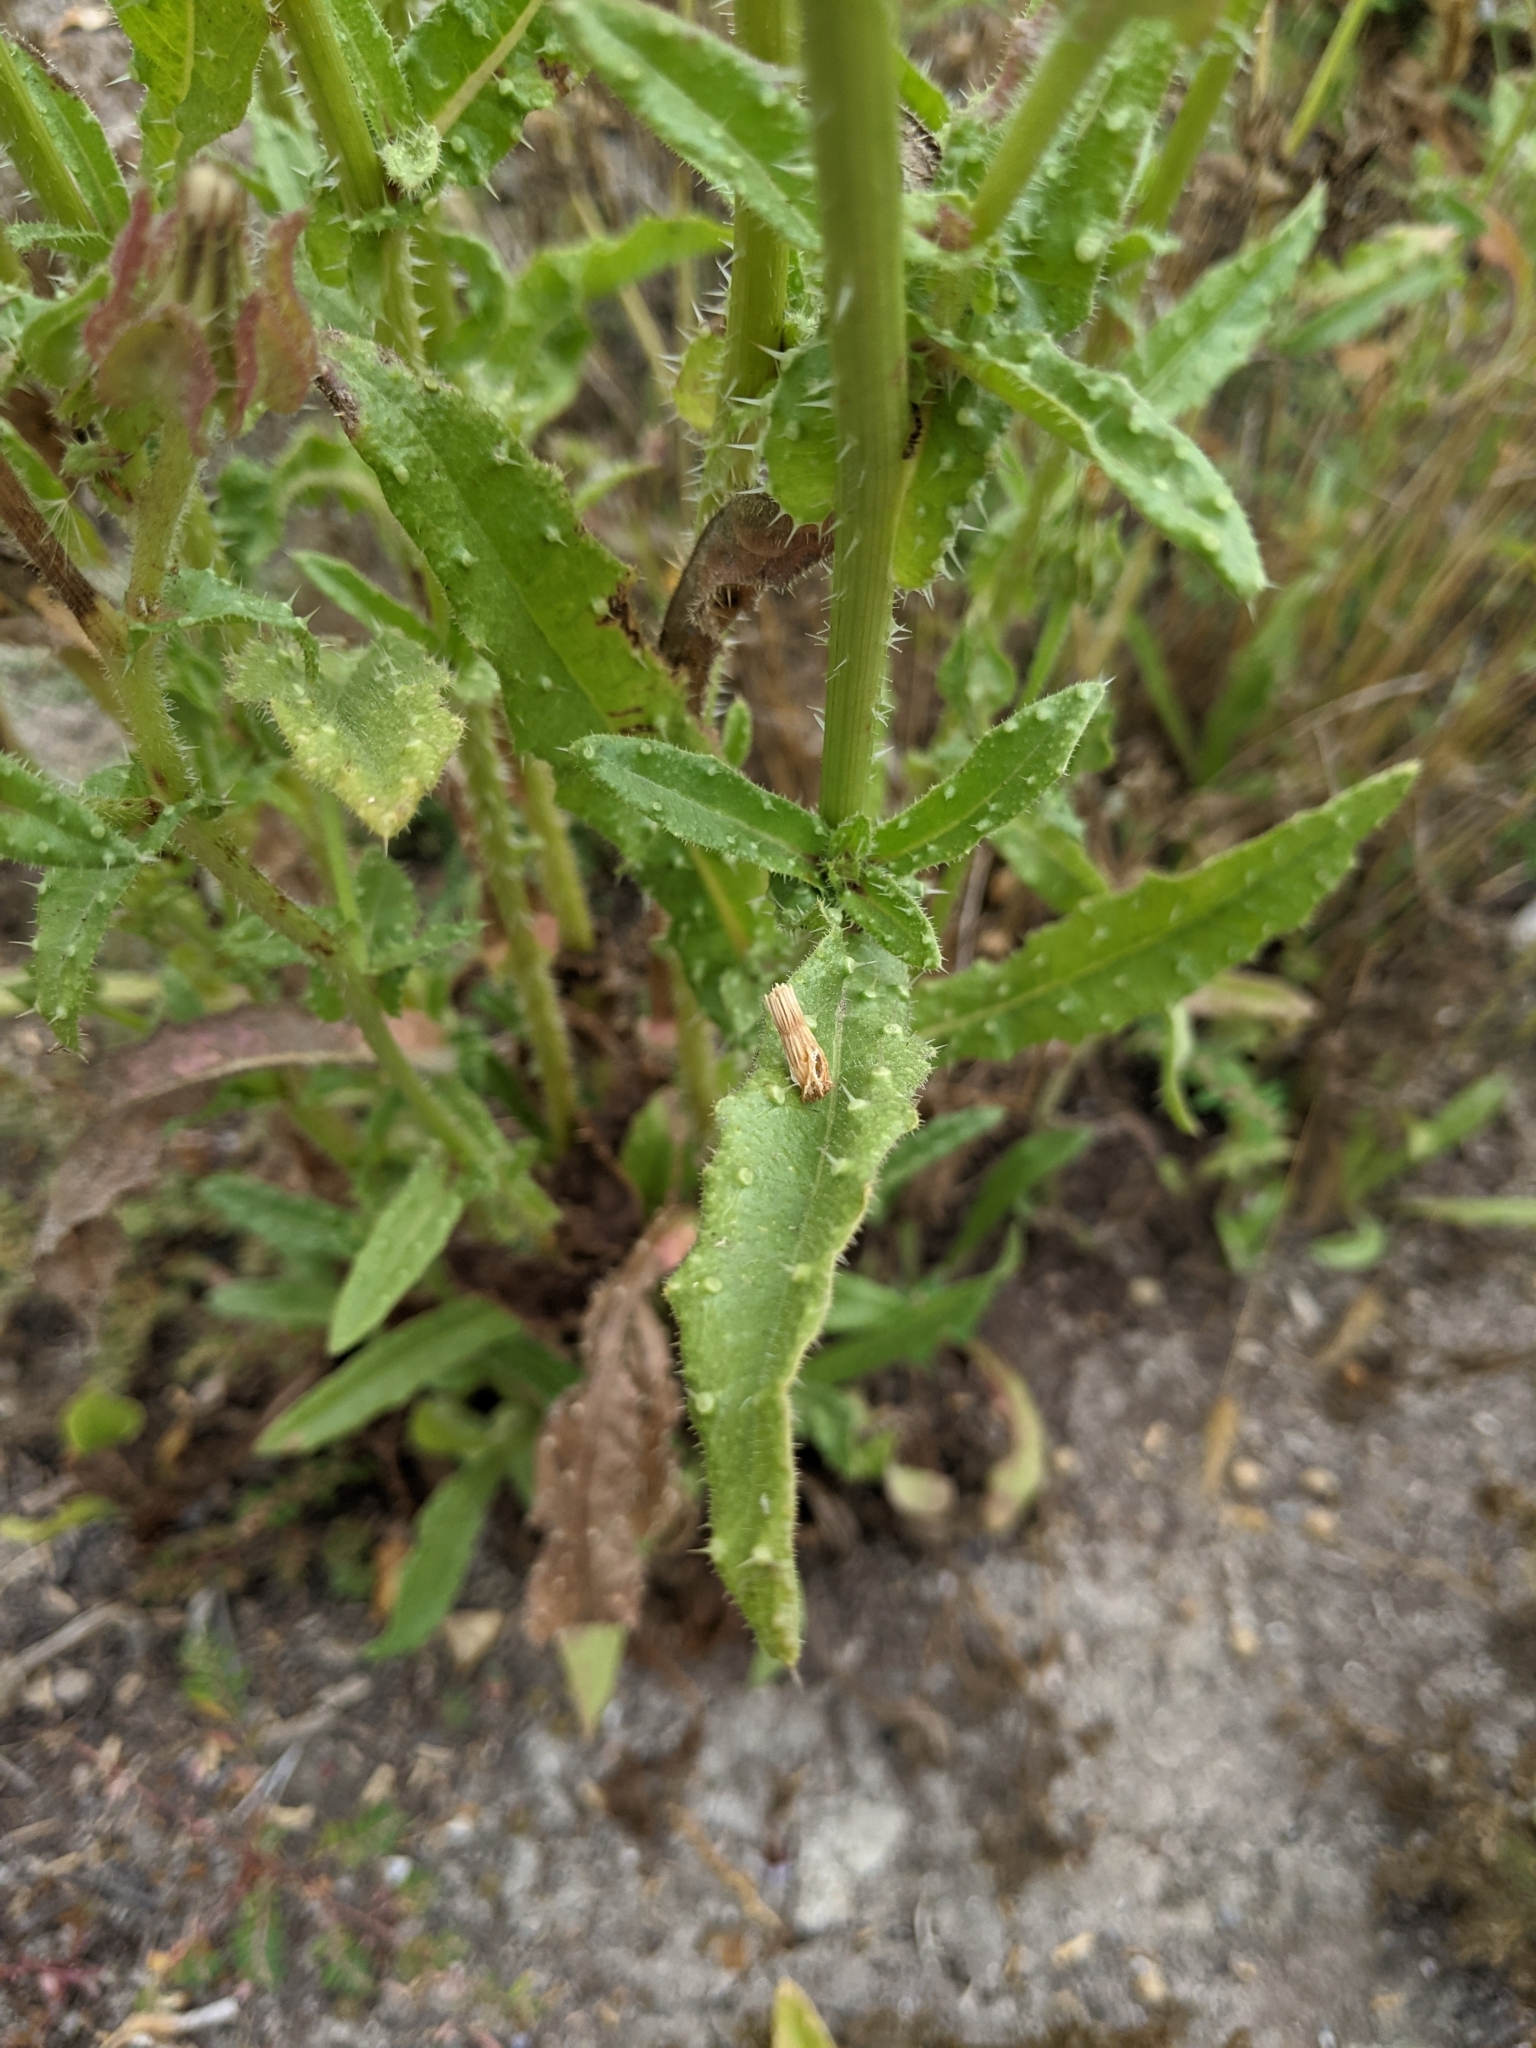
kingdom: Plantae
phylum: Tracheophyta
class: Magnoliopsida
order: Asterales
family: Asteraceae
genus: Helminthotheca
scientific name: Helminthotheca echioides
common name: Ox-tongue
